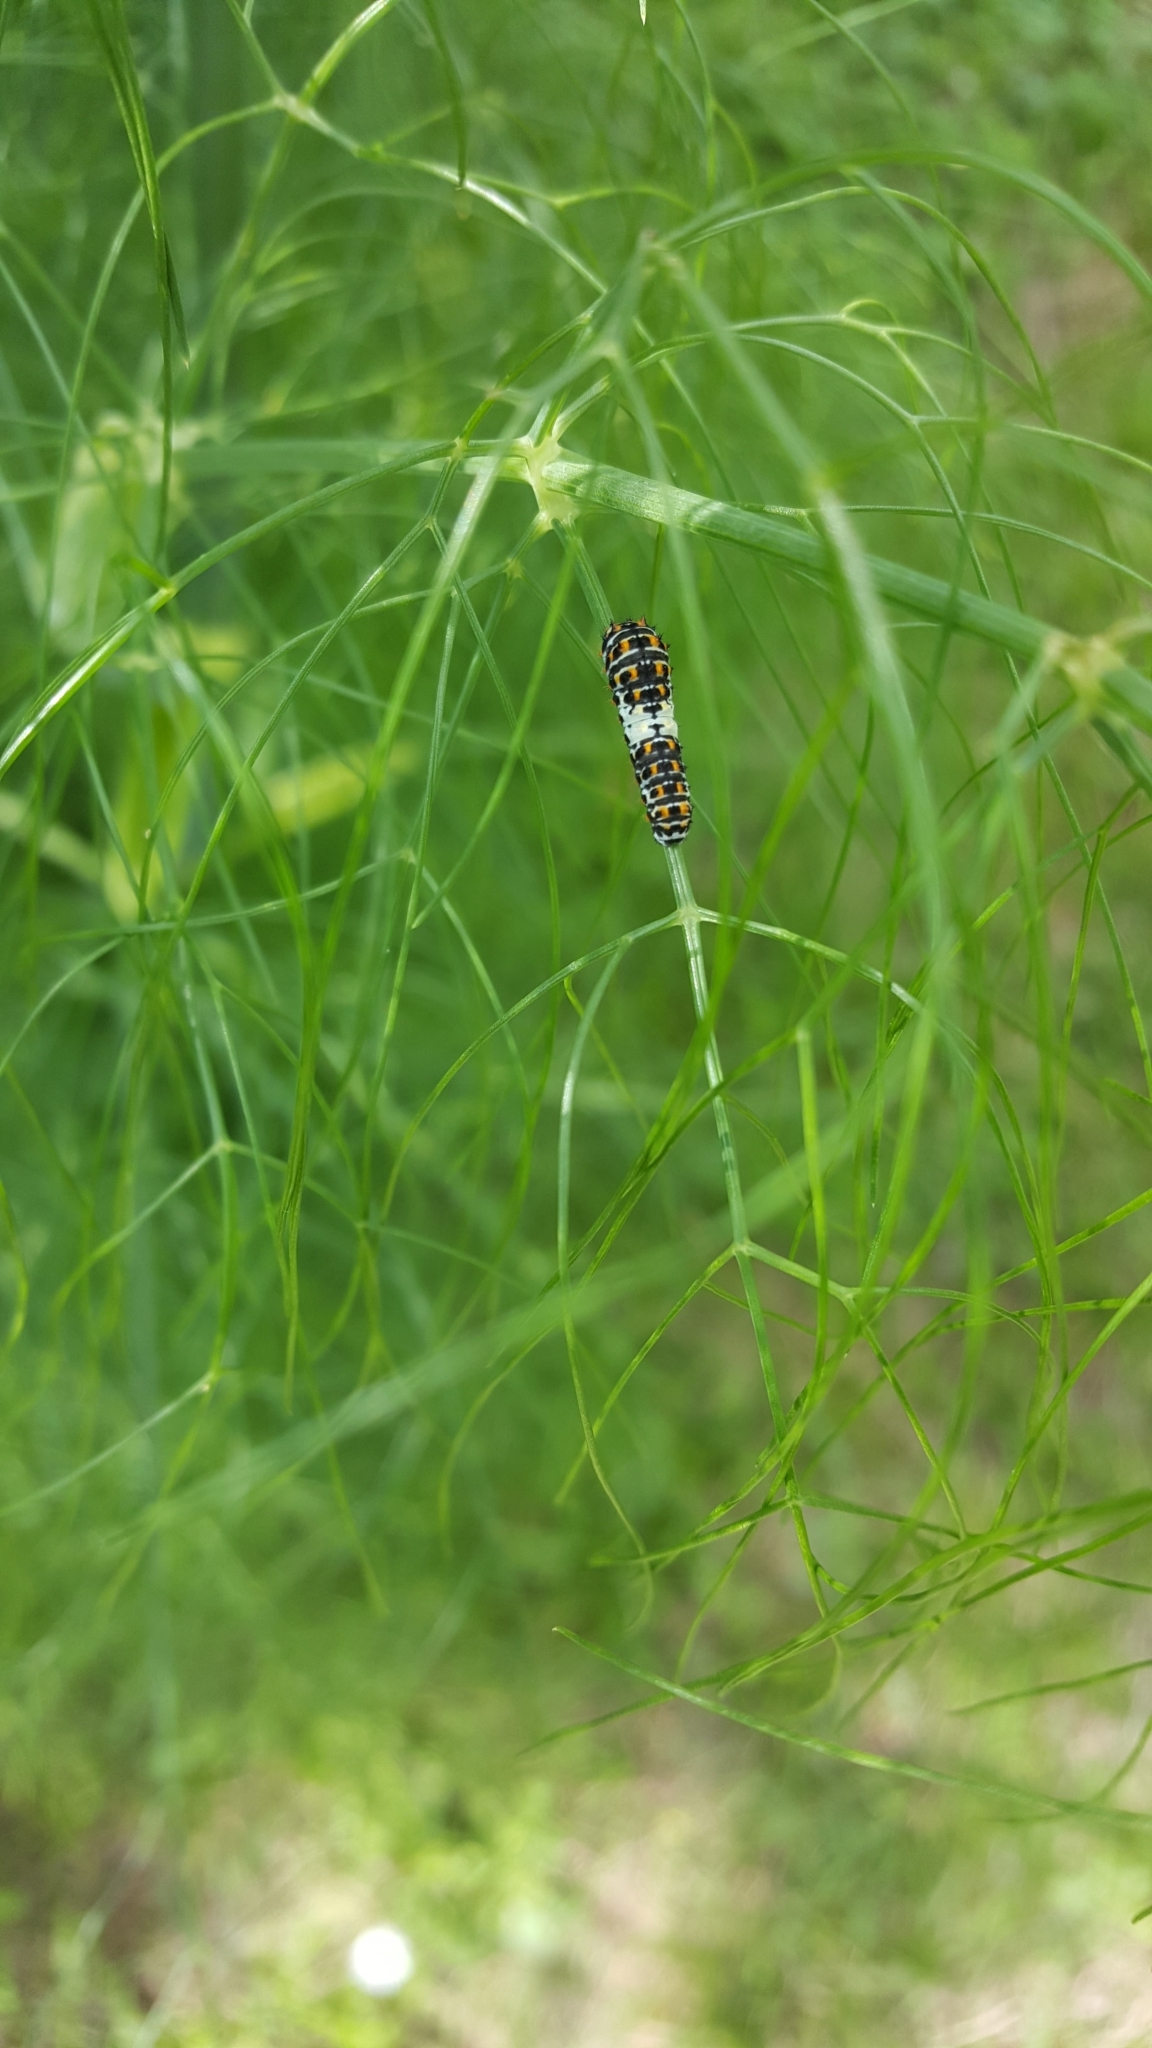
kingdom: Animalia
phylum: Arthropoda
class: Insecta
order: Lepidoptera
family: Papilionidae
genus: Papilio
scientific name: Papilio machaon
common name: Swallowtail
